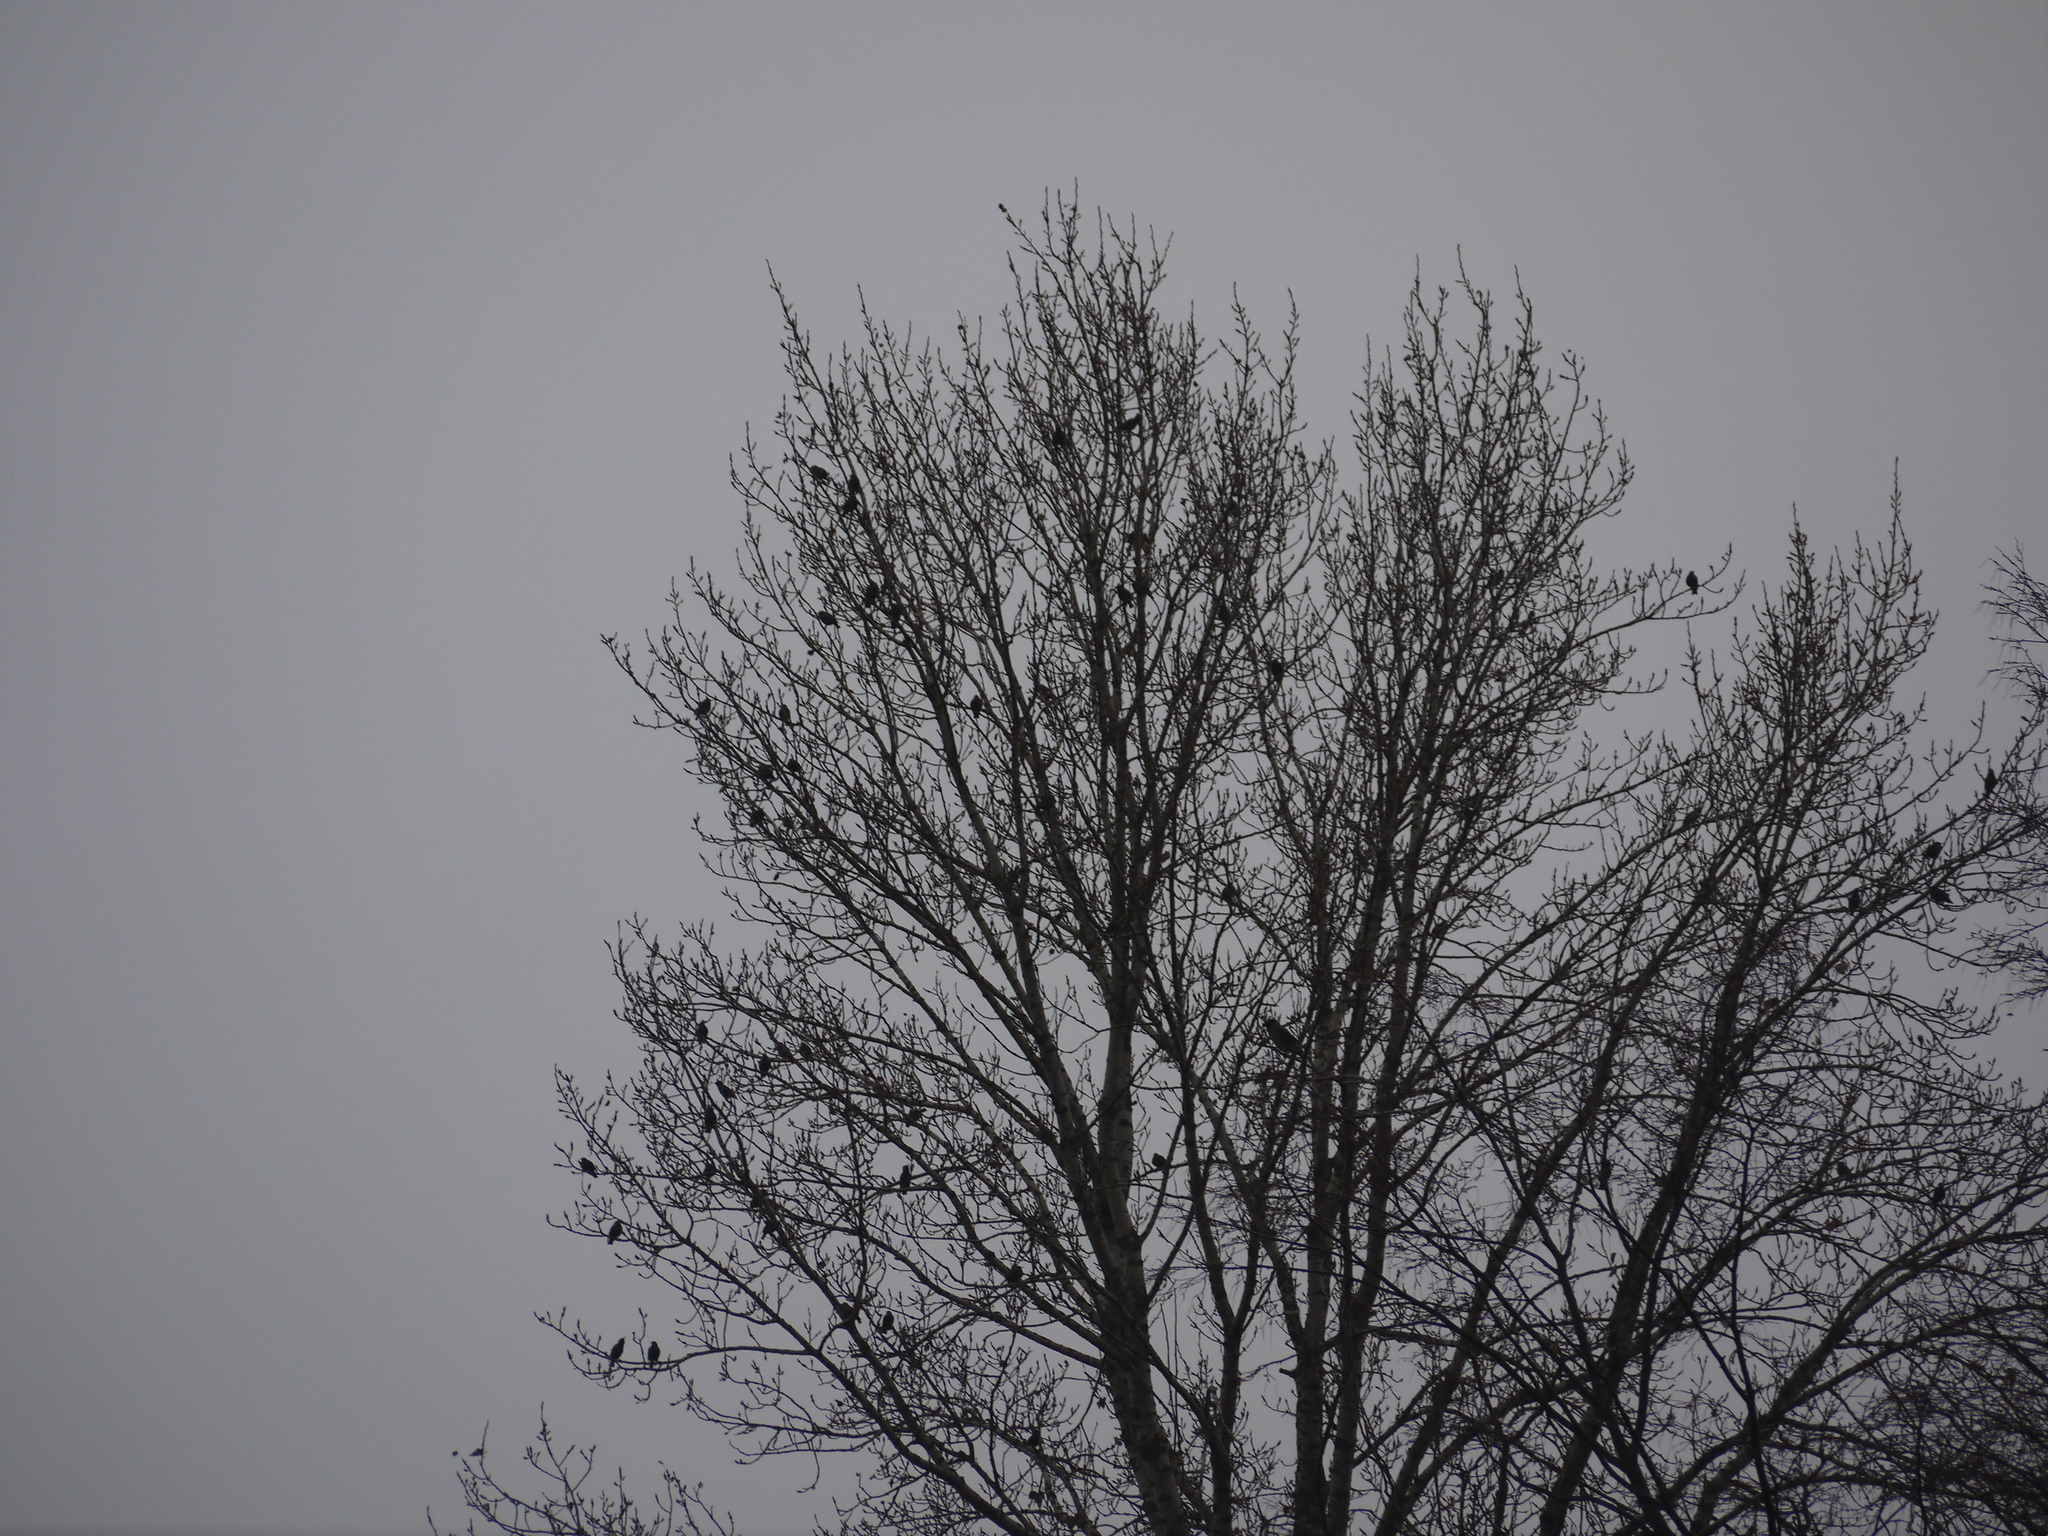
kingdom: Animalia
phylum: Chordata
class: Aves
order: Passeriformes
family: Sturnidae
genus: Sturnus
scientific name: Sturnus vulgaris
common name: Common starling
